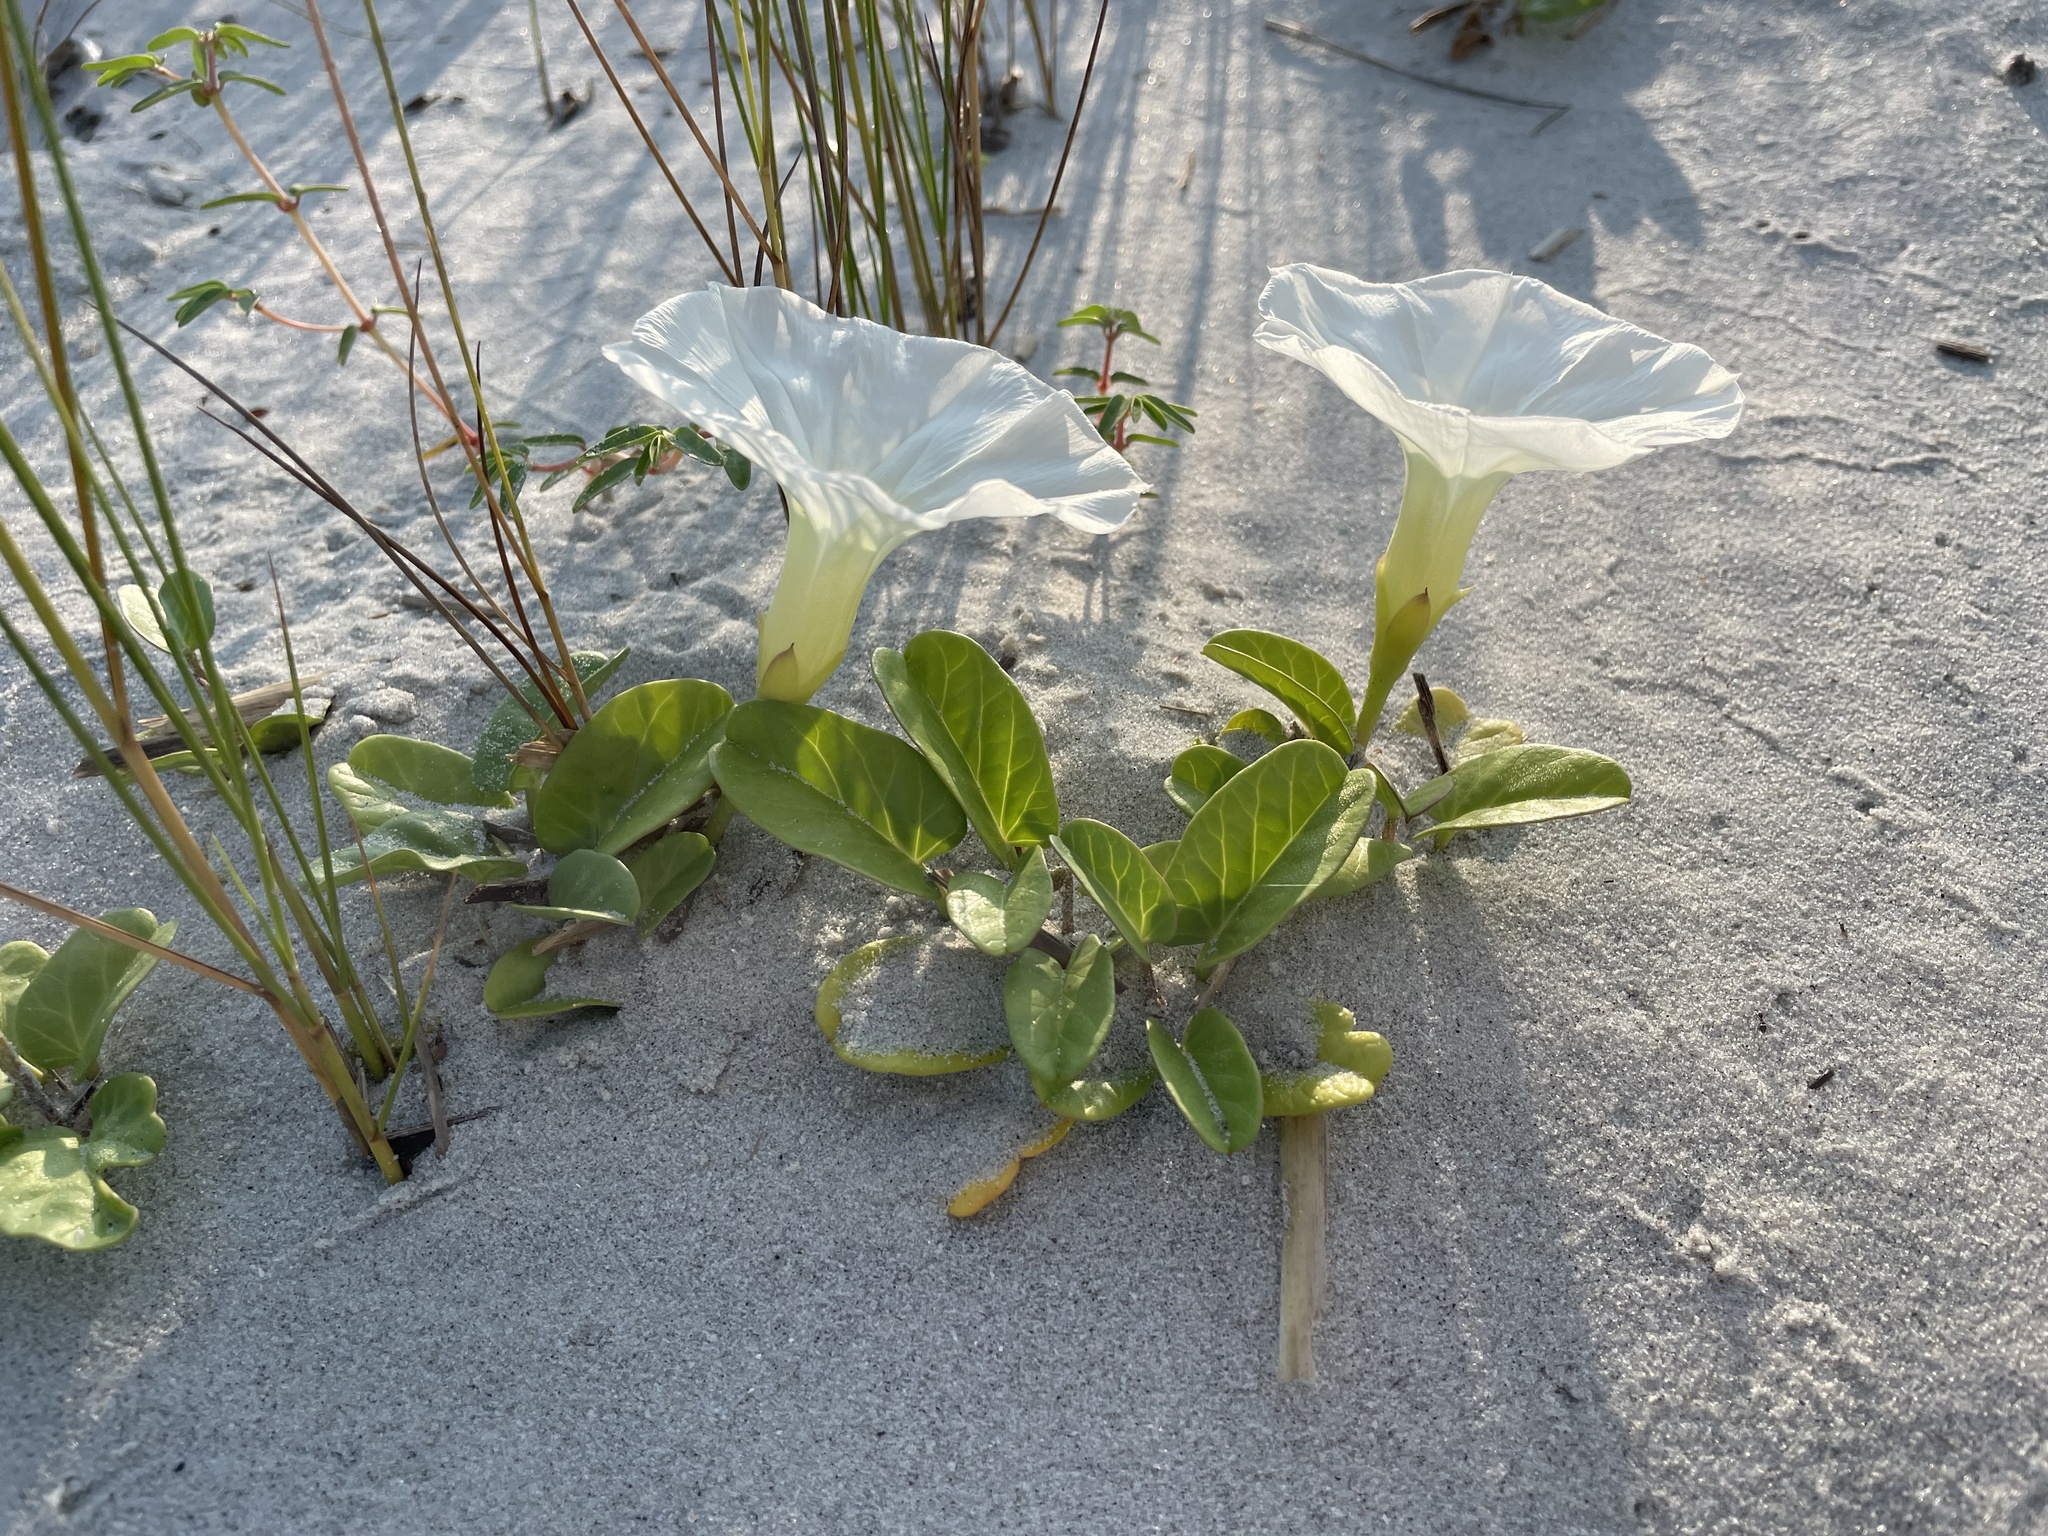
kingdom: Plantae
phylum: Tracheophyta
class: Magnoliopsida
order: Solanales
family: Convolvulaceae
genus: Ipomoea
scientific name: Ipomoea imperati
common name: Fiddle-leaf morning-glory
